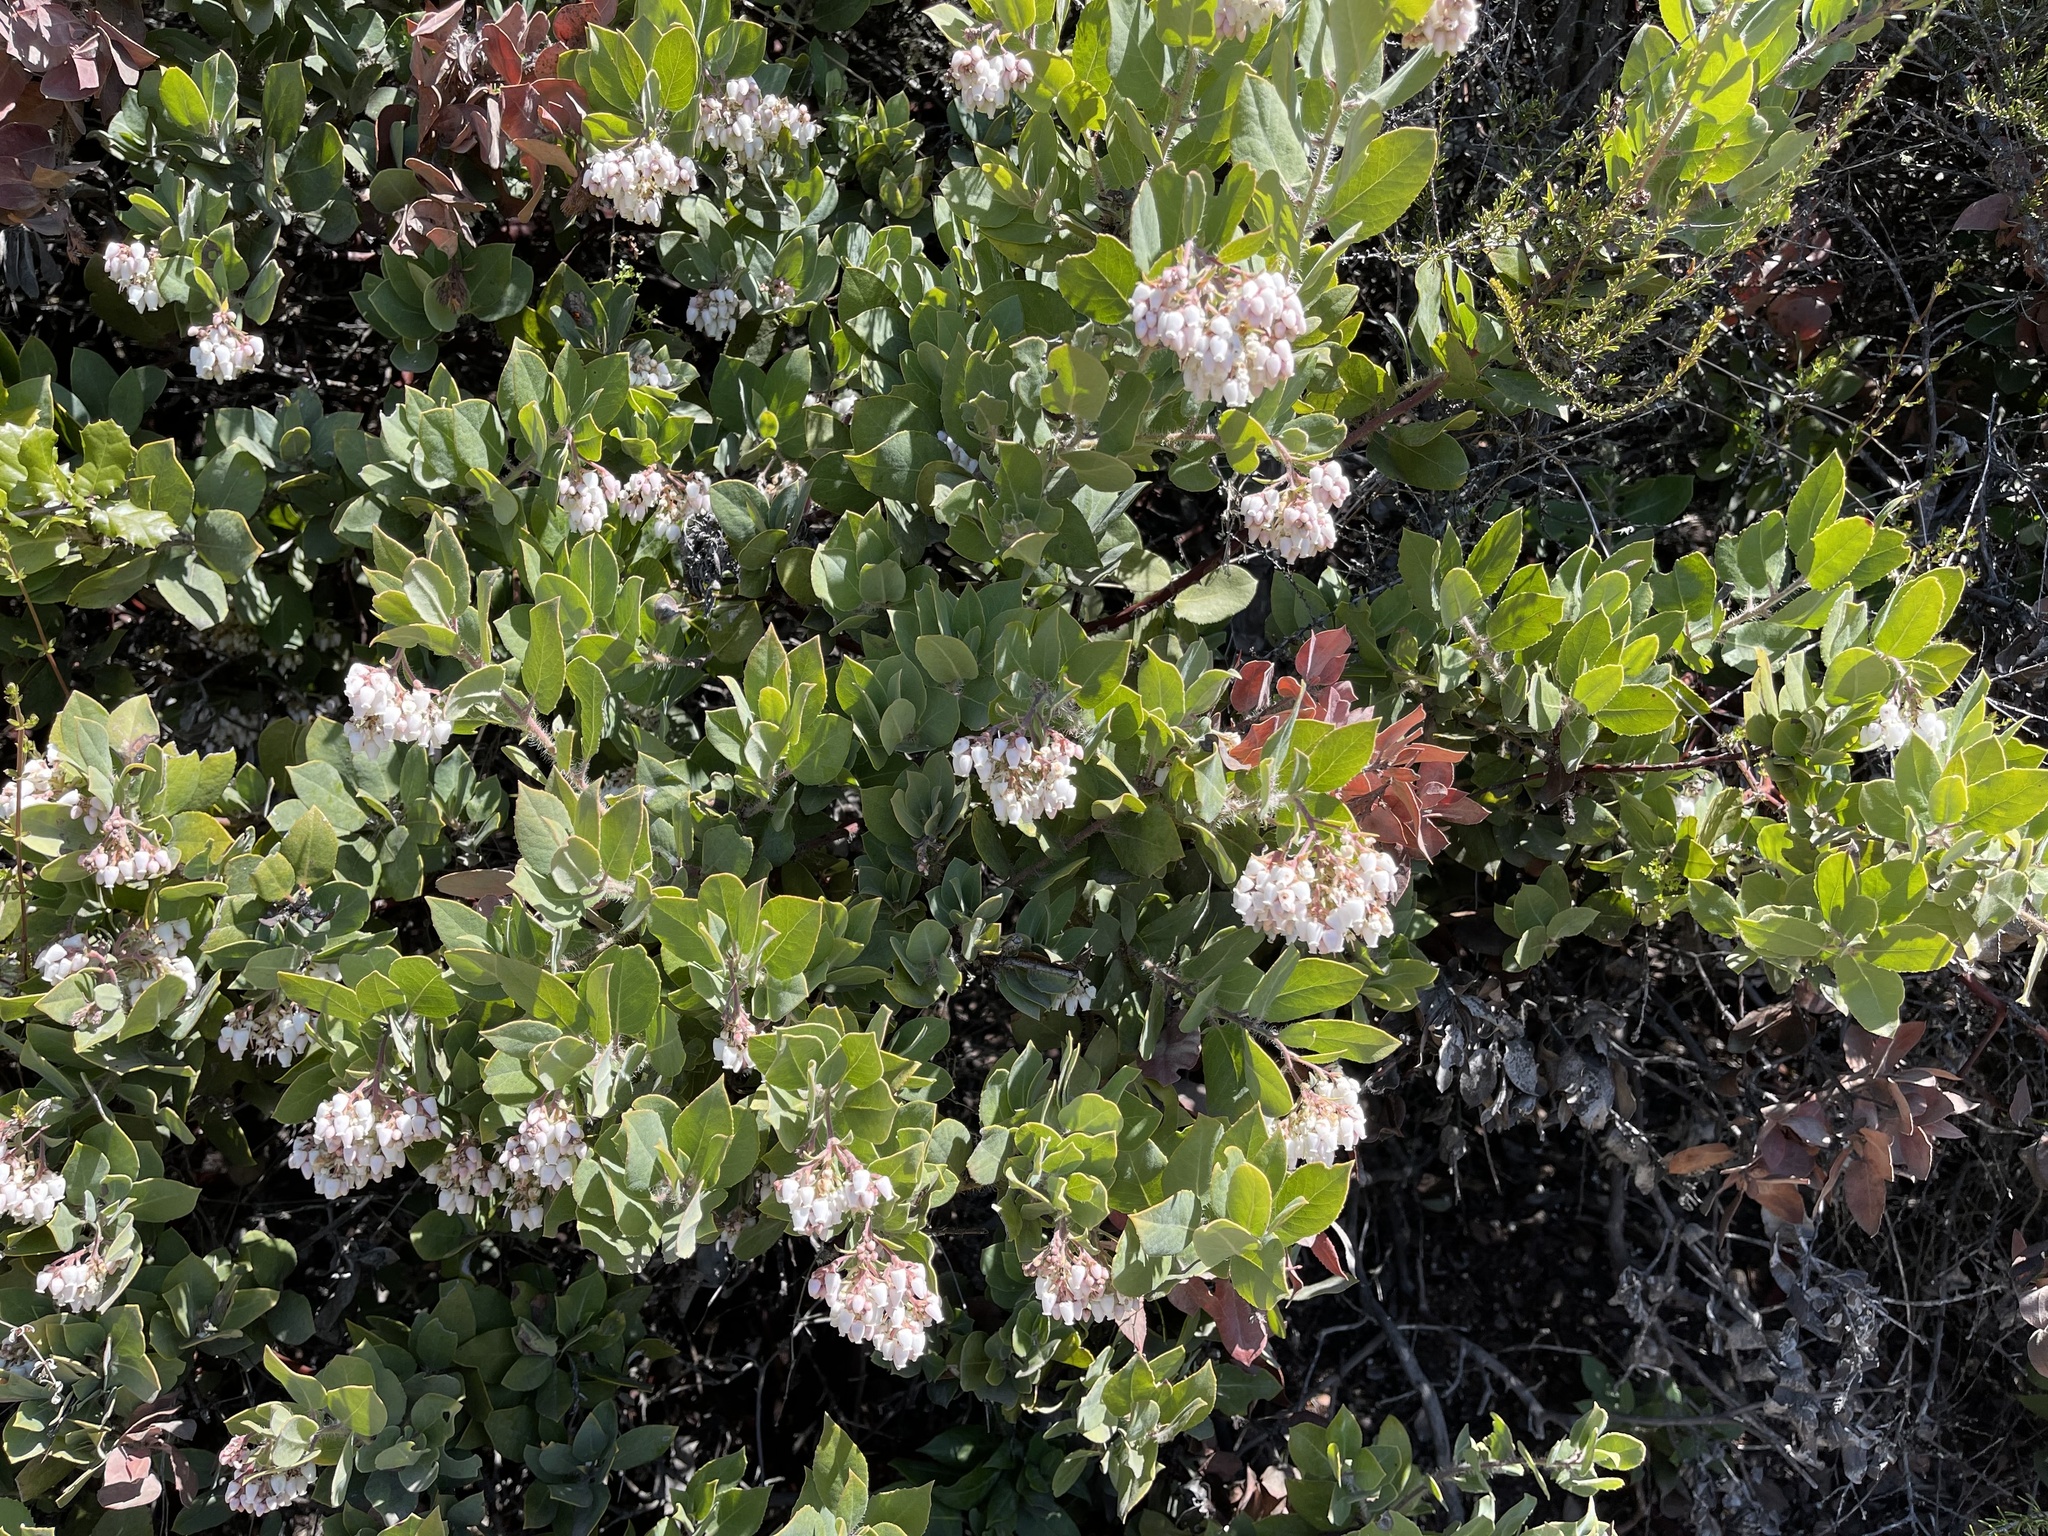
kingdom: Plantae
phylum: Tracheophyta
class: Magnoliopsida
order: Ericales
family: Ericaceae
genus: Arctostaphylos
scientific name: Arctostaphylos crustacea
